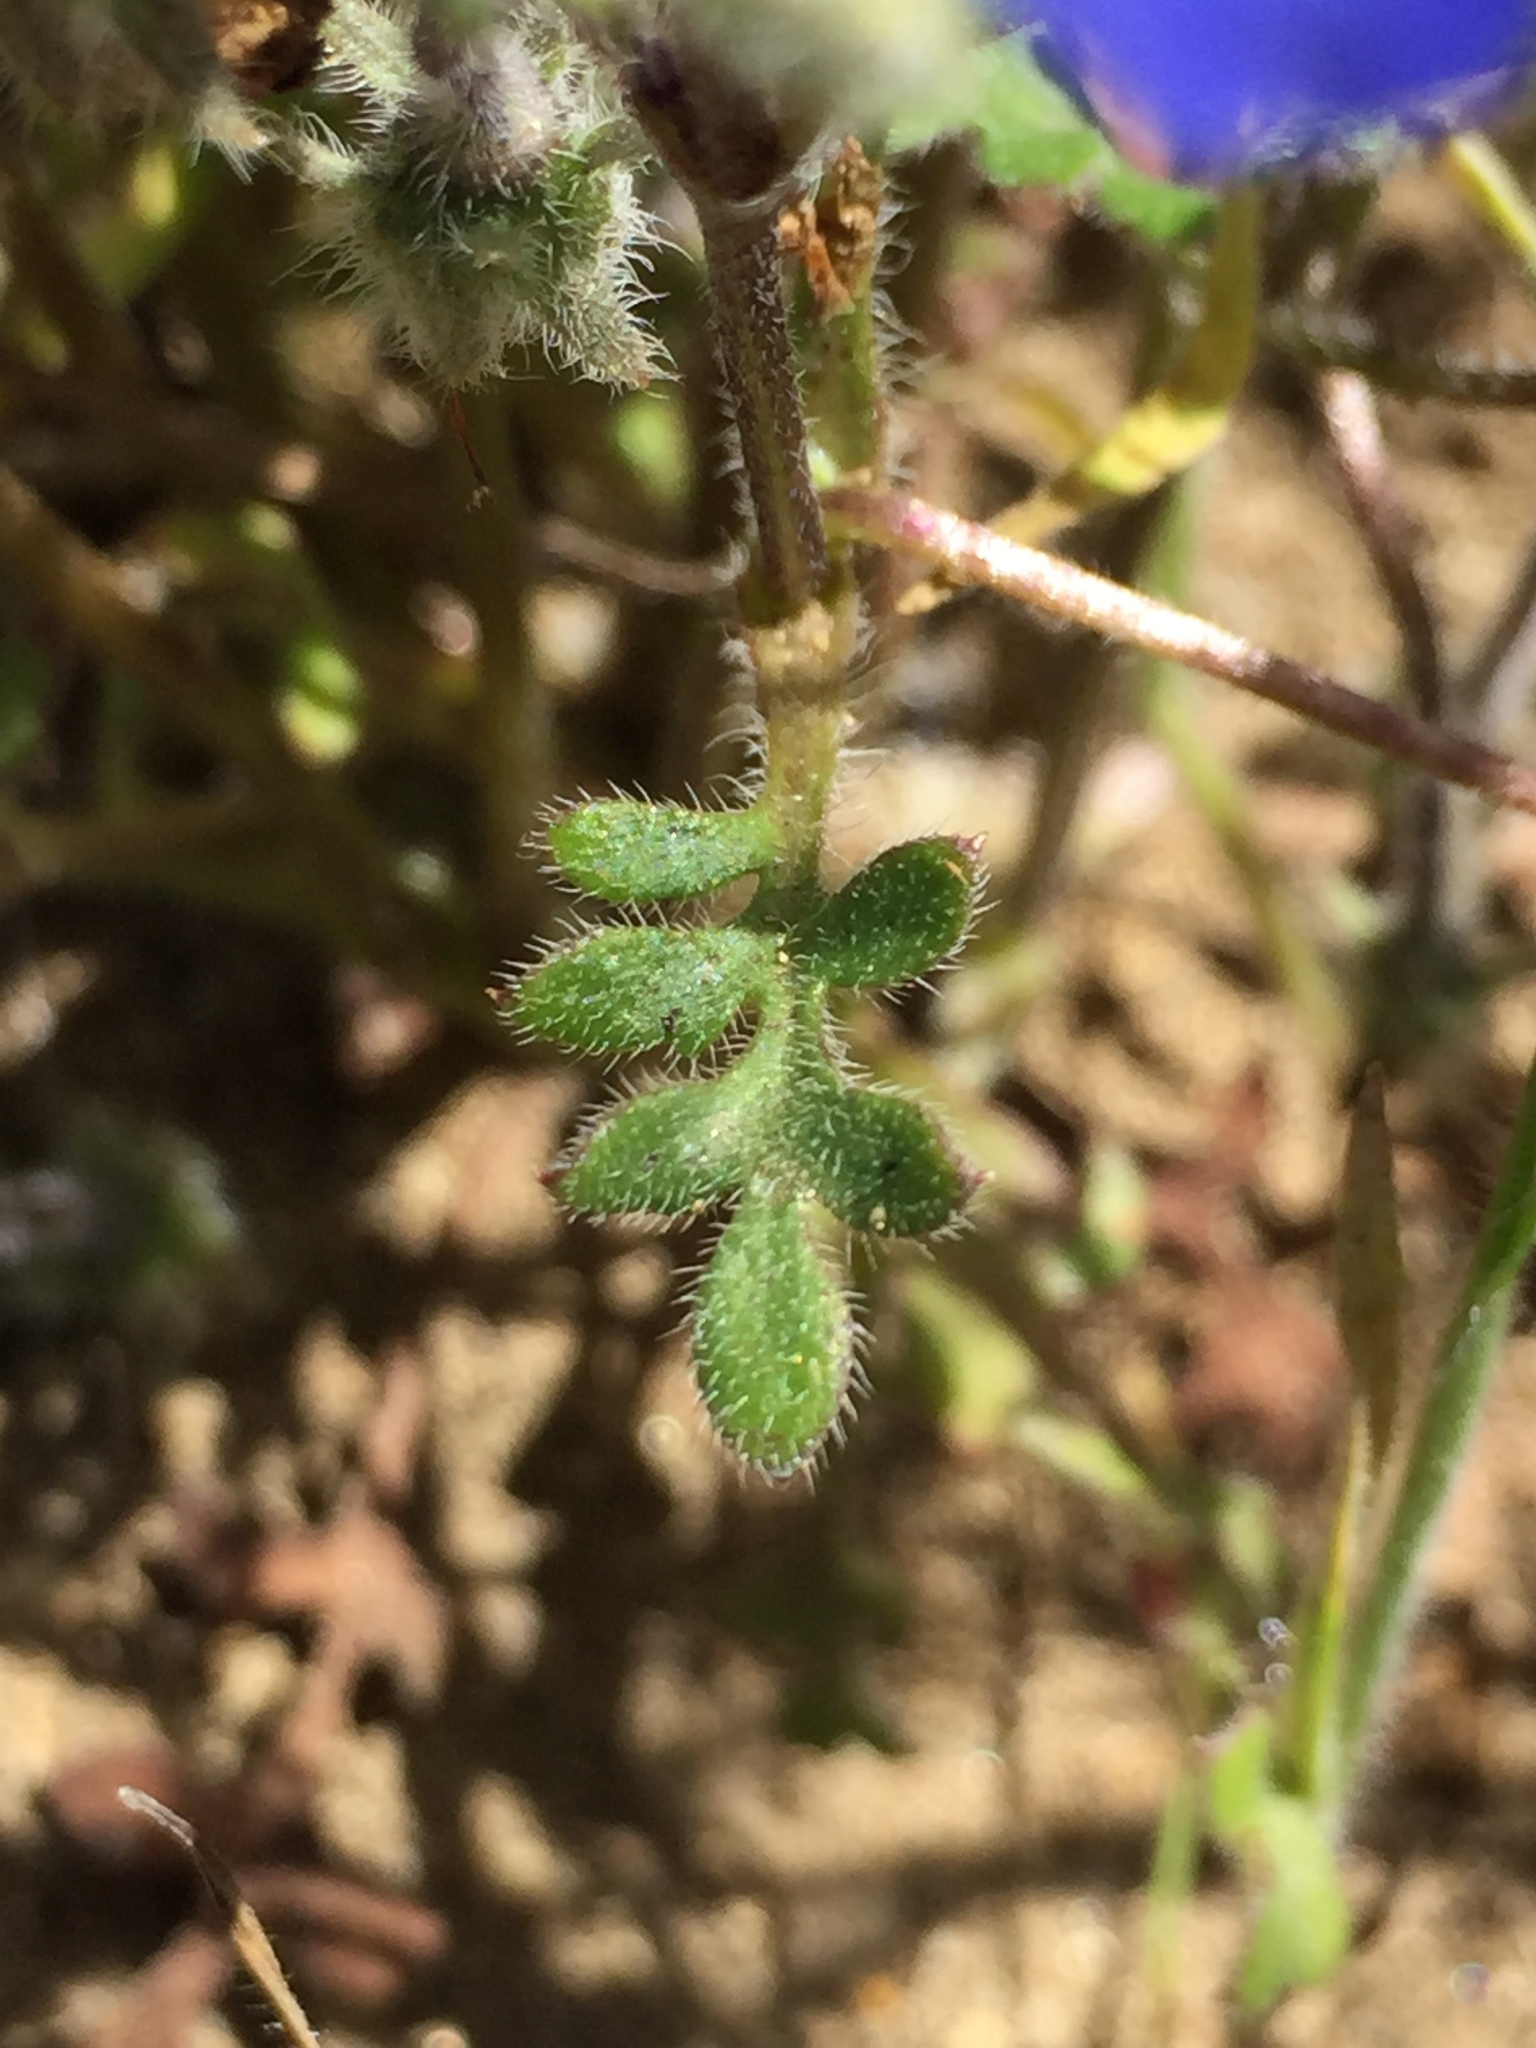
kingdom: Plantae
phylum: Tracheophyta
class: Magnoliopsida
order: Boraginales
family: Hydrophyllaceae
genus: Nemophila
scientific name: Nemophila menziesii
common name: Baby's-blue-eyes
